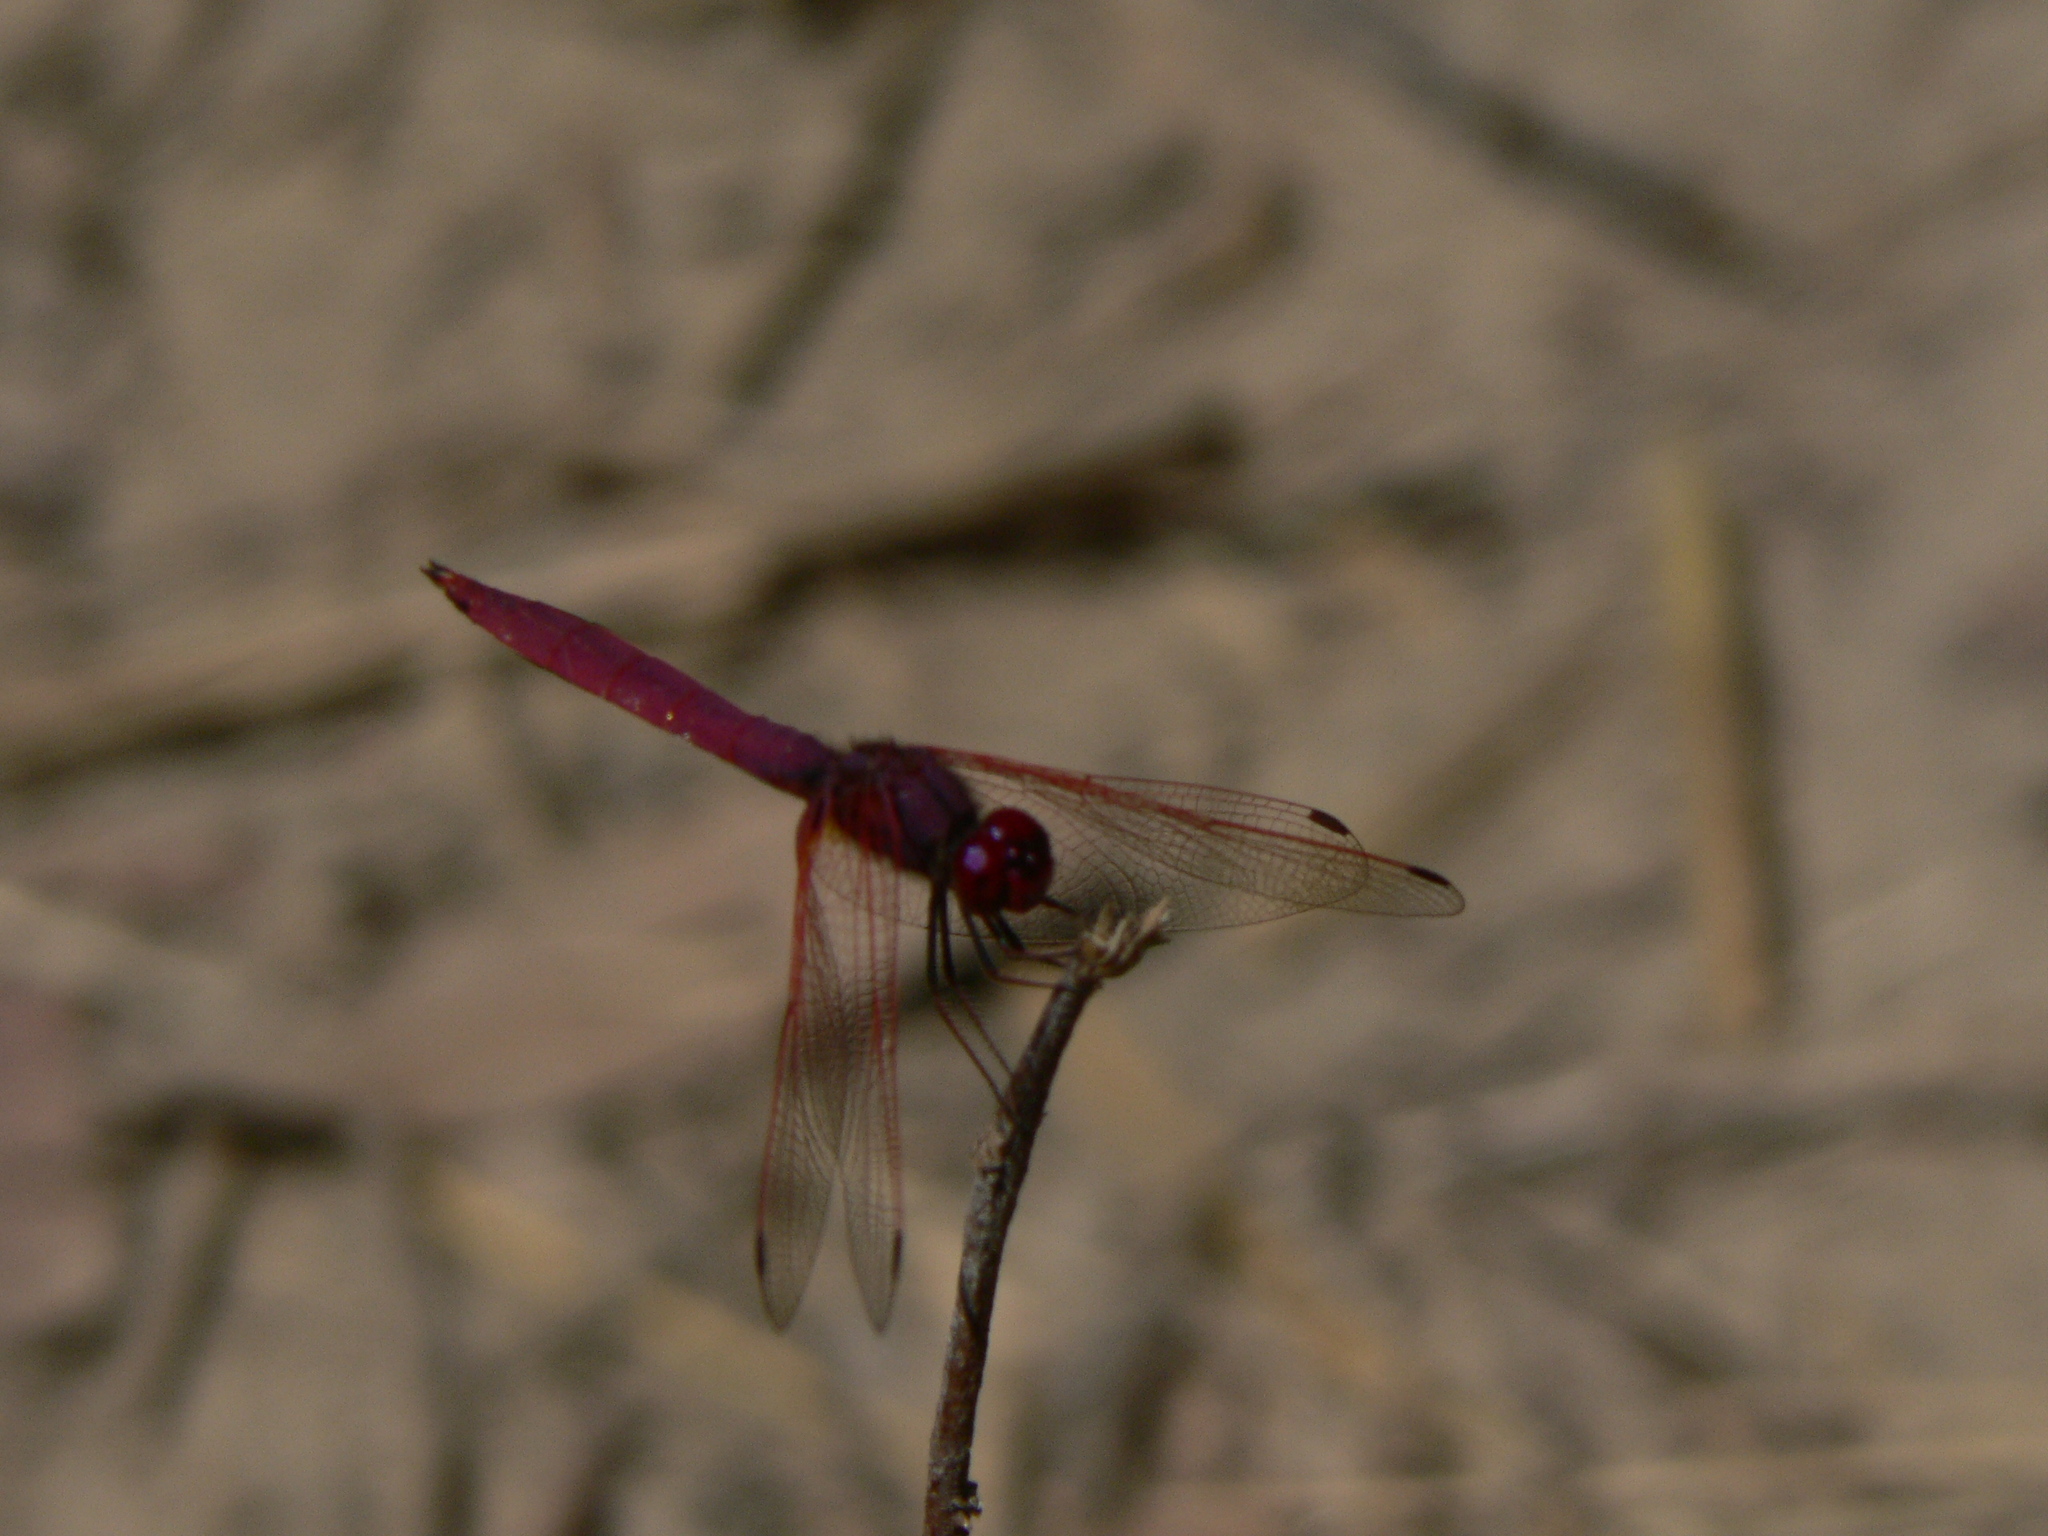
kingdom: Animalia
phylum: Arthropoda
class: Insecta
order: Odonata
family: Libellulidae
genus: Trithemis
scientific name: Trithemis aurora
